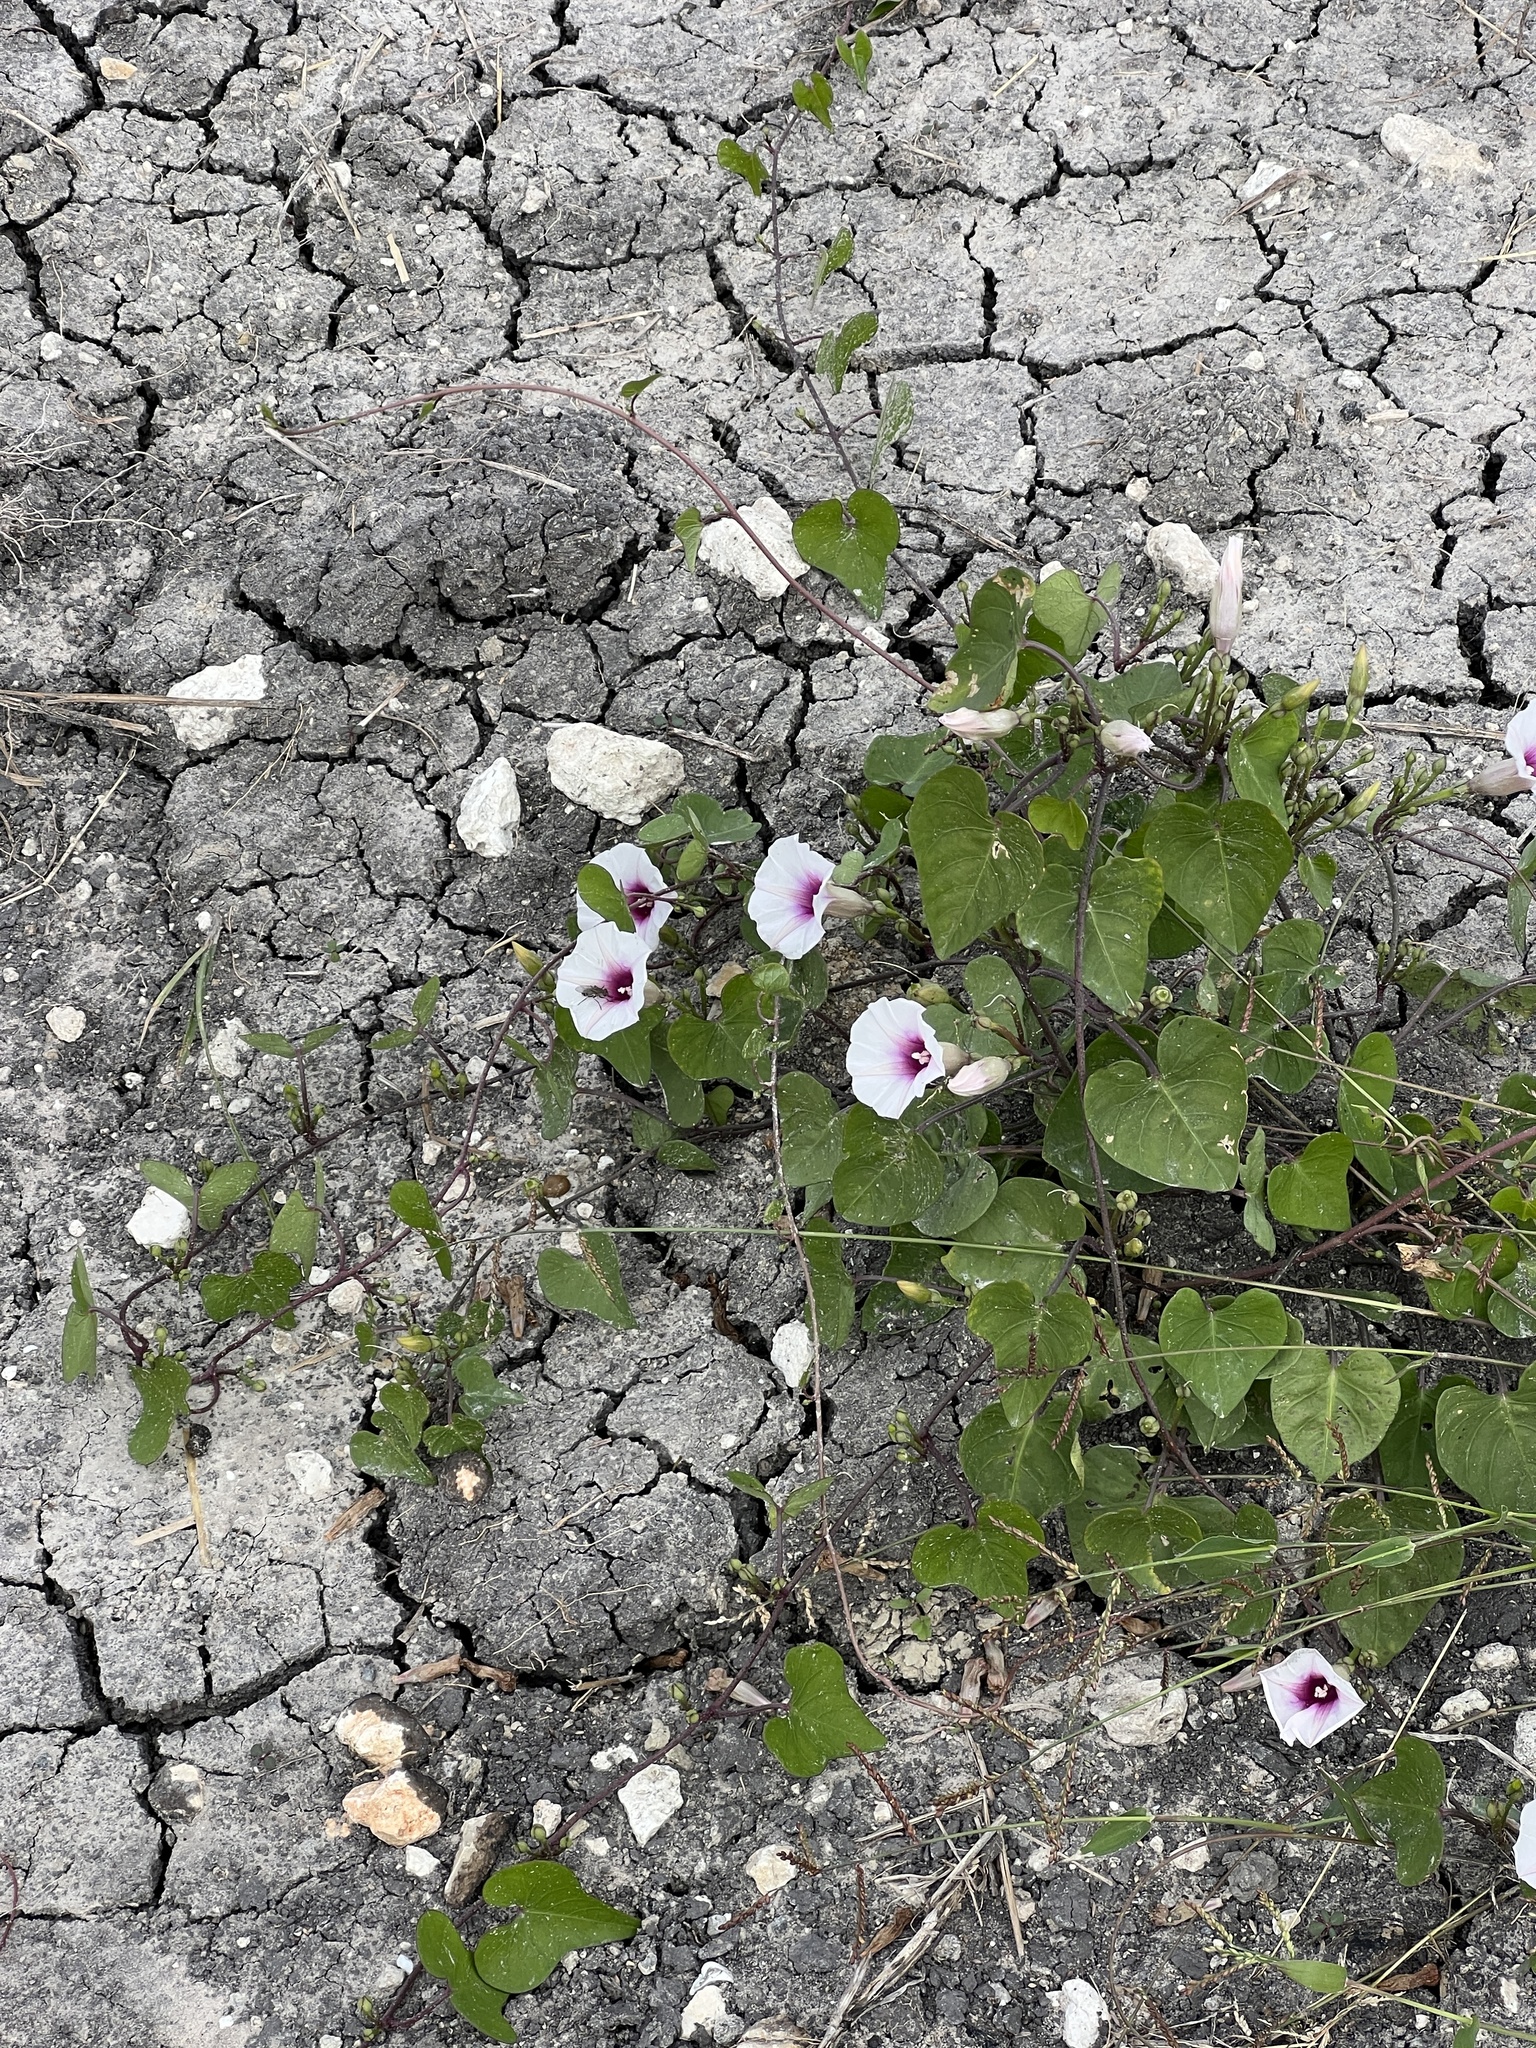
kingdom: Plantae
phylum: Tracheophyta
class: Magnoliopsida
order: Solanales
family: Convolvulaceae
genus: Ipomoea
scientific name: Ipomoea amnicola
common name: Redcenter morning-glory
